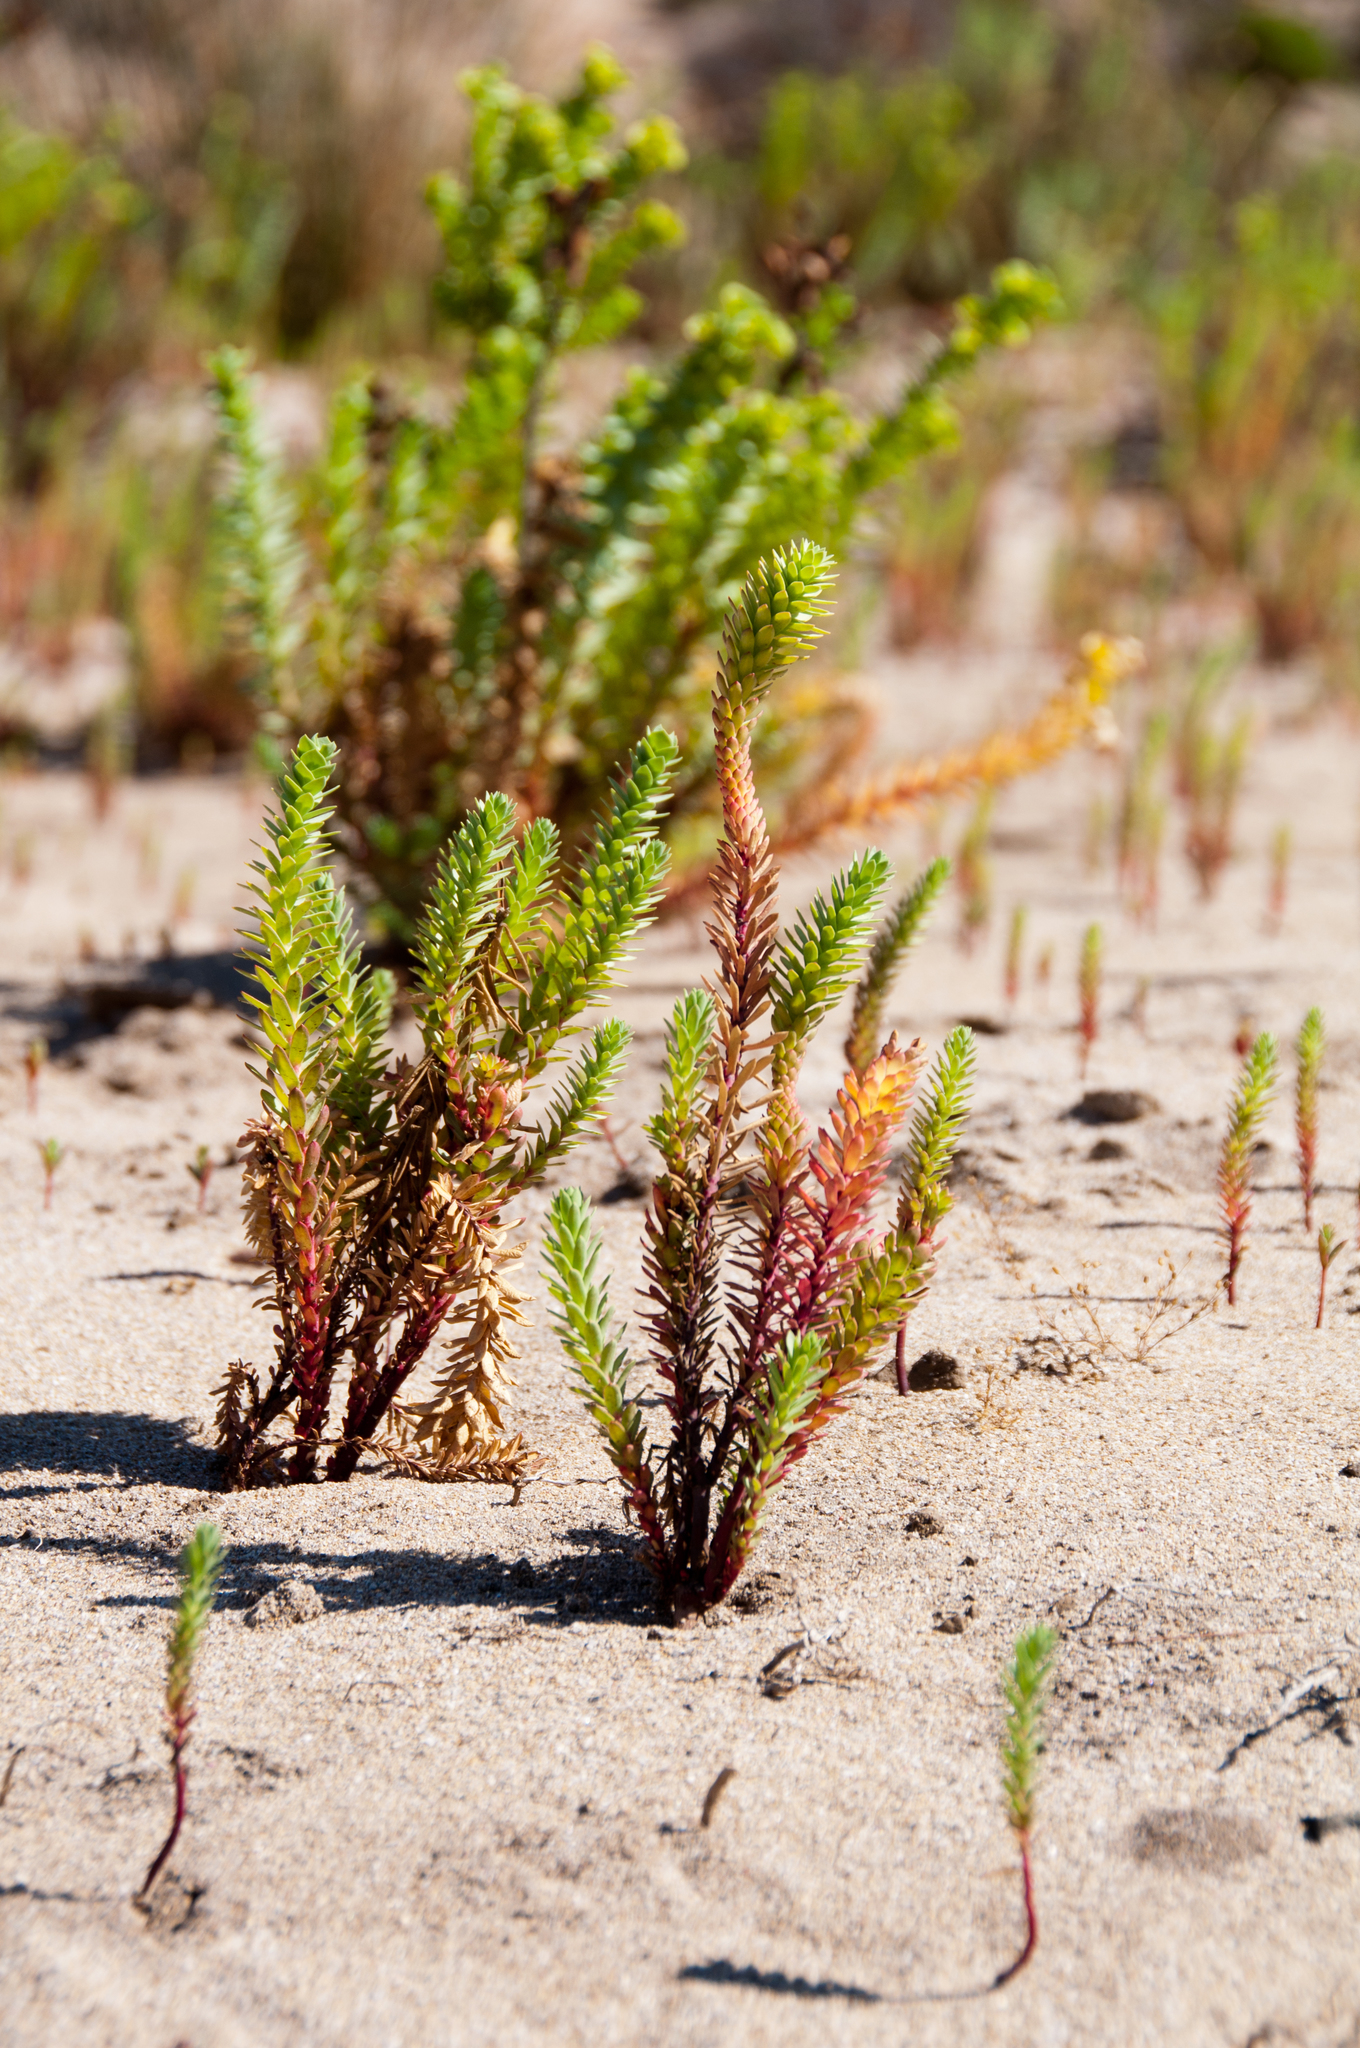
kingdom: Plantae
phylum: Tracheophyta
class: Magnoliopsida
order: Malpighiales
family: Euphorbiaceae
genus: Euphorbia
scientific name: Euphorbia paralias
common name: Sea spurge
